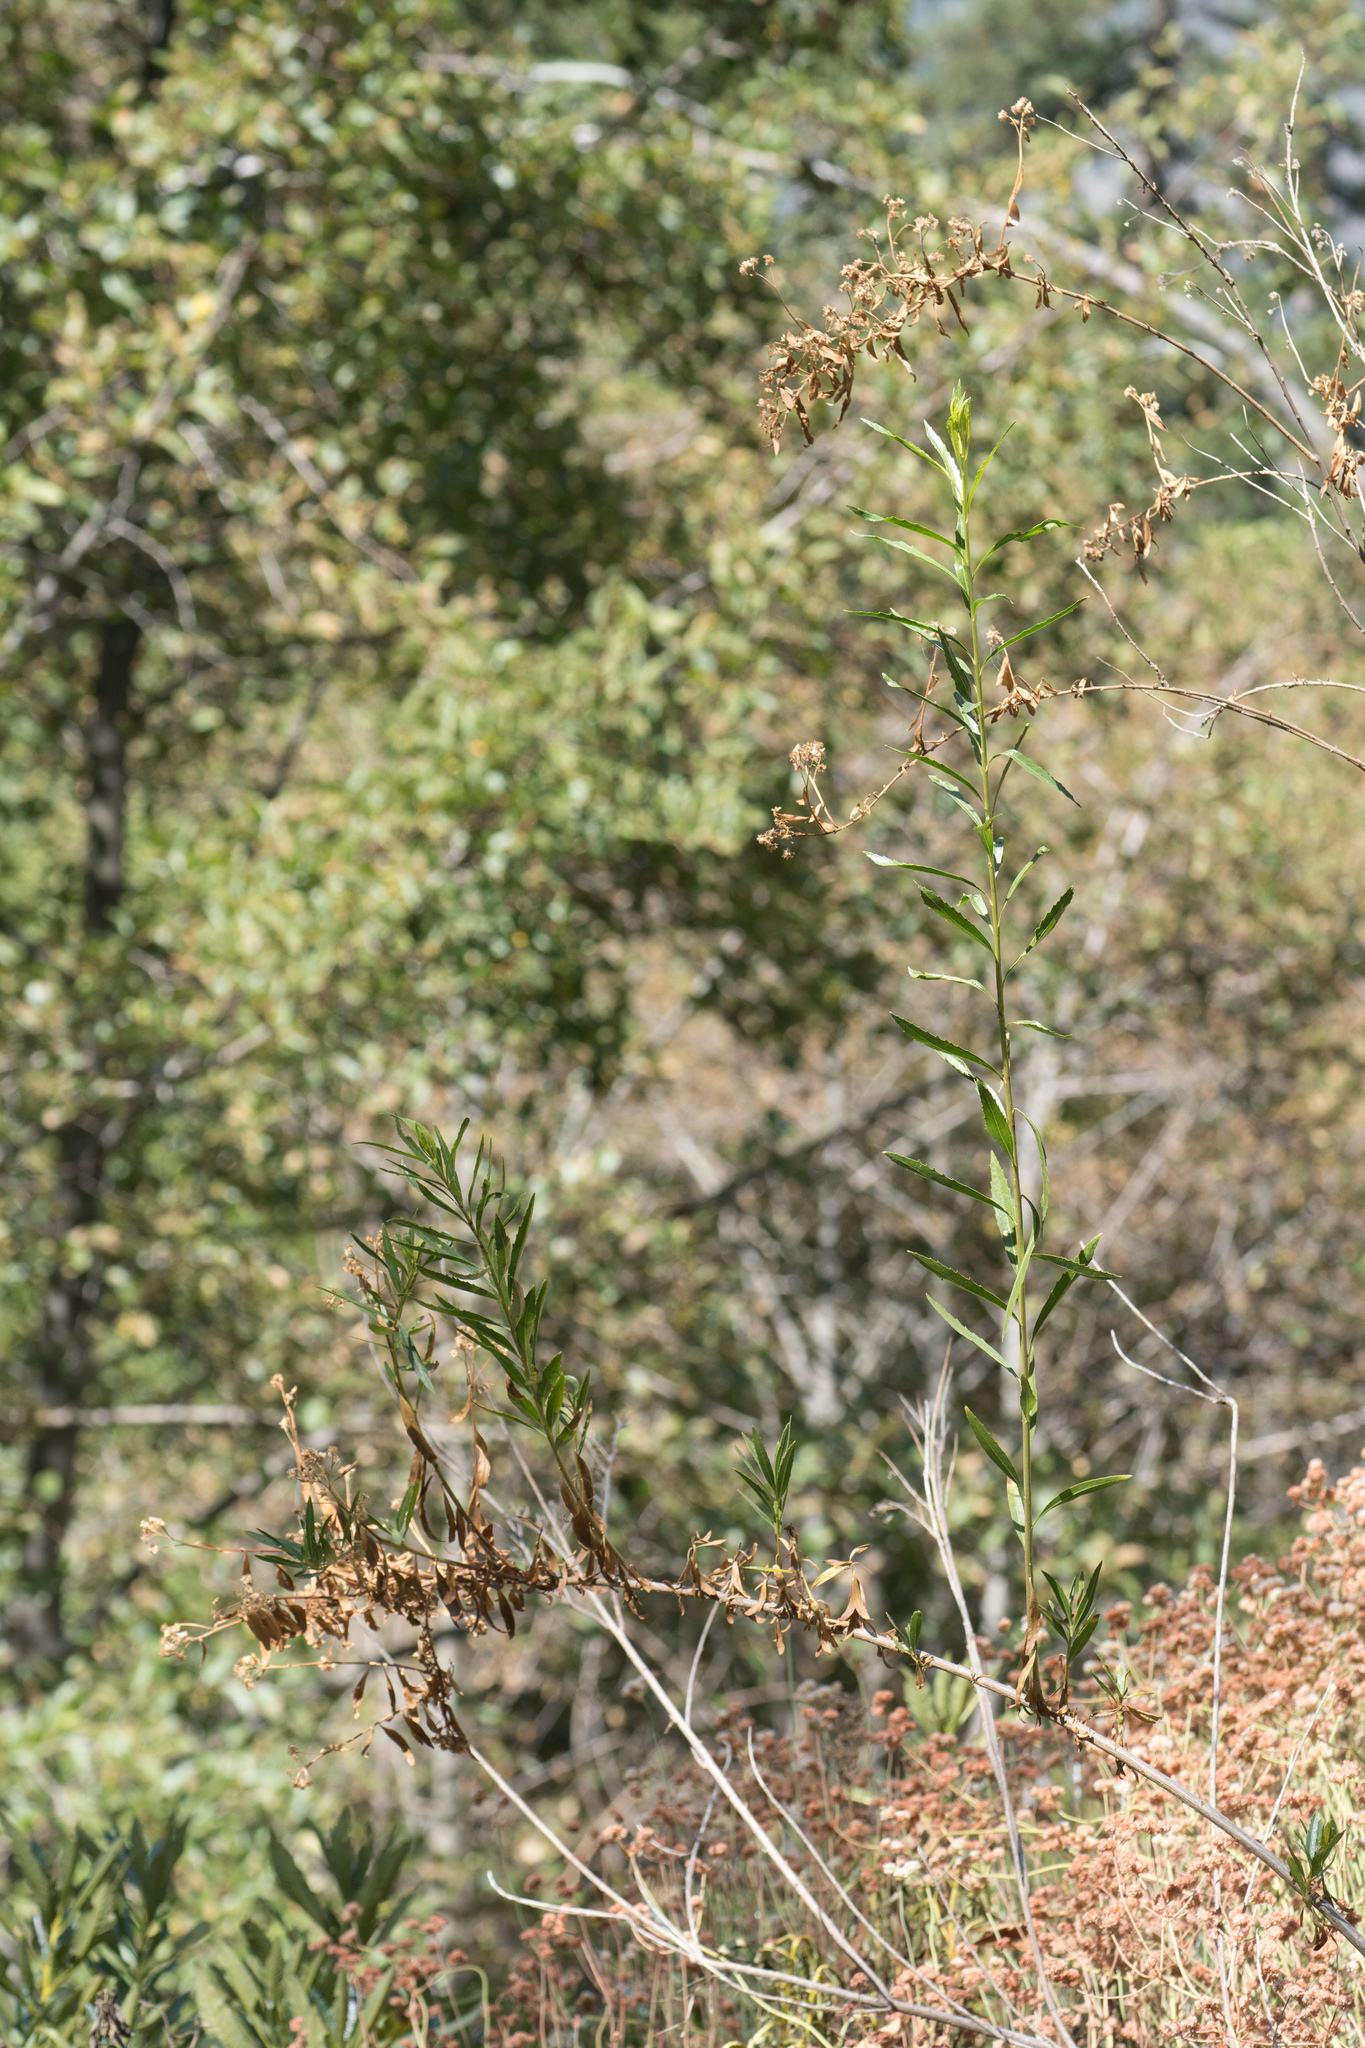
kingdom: Plantae
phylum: Tracheophyta
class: Magnoliopsida
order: Asterales
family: Asteraceae
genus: Baccharis
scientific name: Baccharis salicifolia
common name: Sticky baccharis
